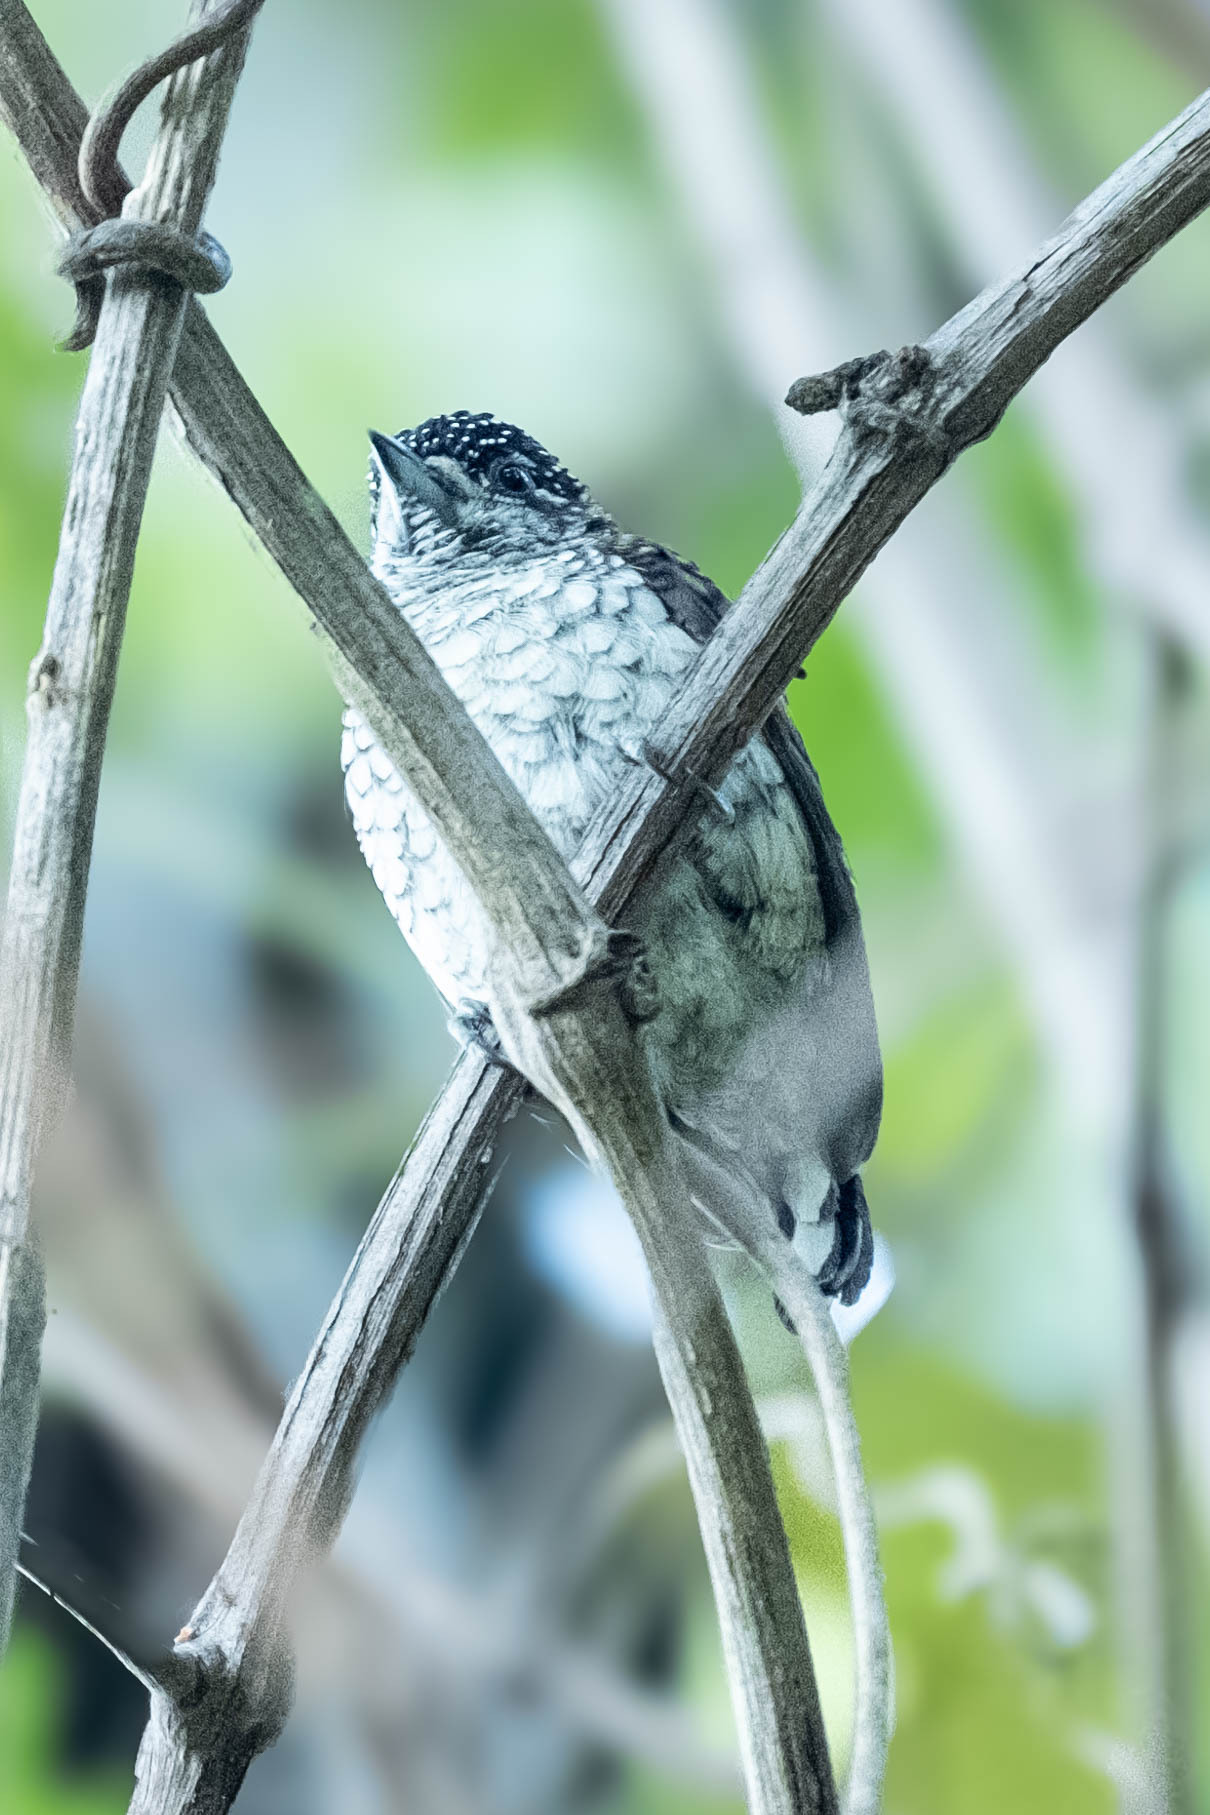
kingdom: Animalia
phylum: Chordata
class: Aves
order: Piciformes
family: Picidae
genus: Picumnus
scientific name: Picumnus squamulatus
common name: Scaled piculet
